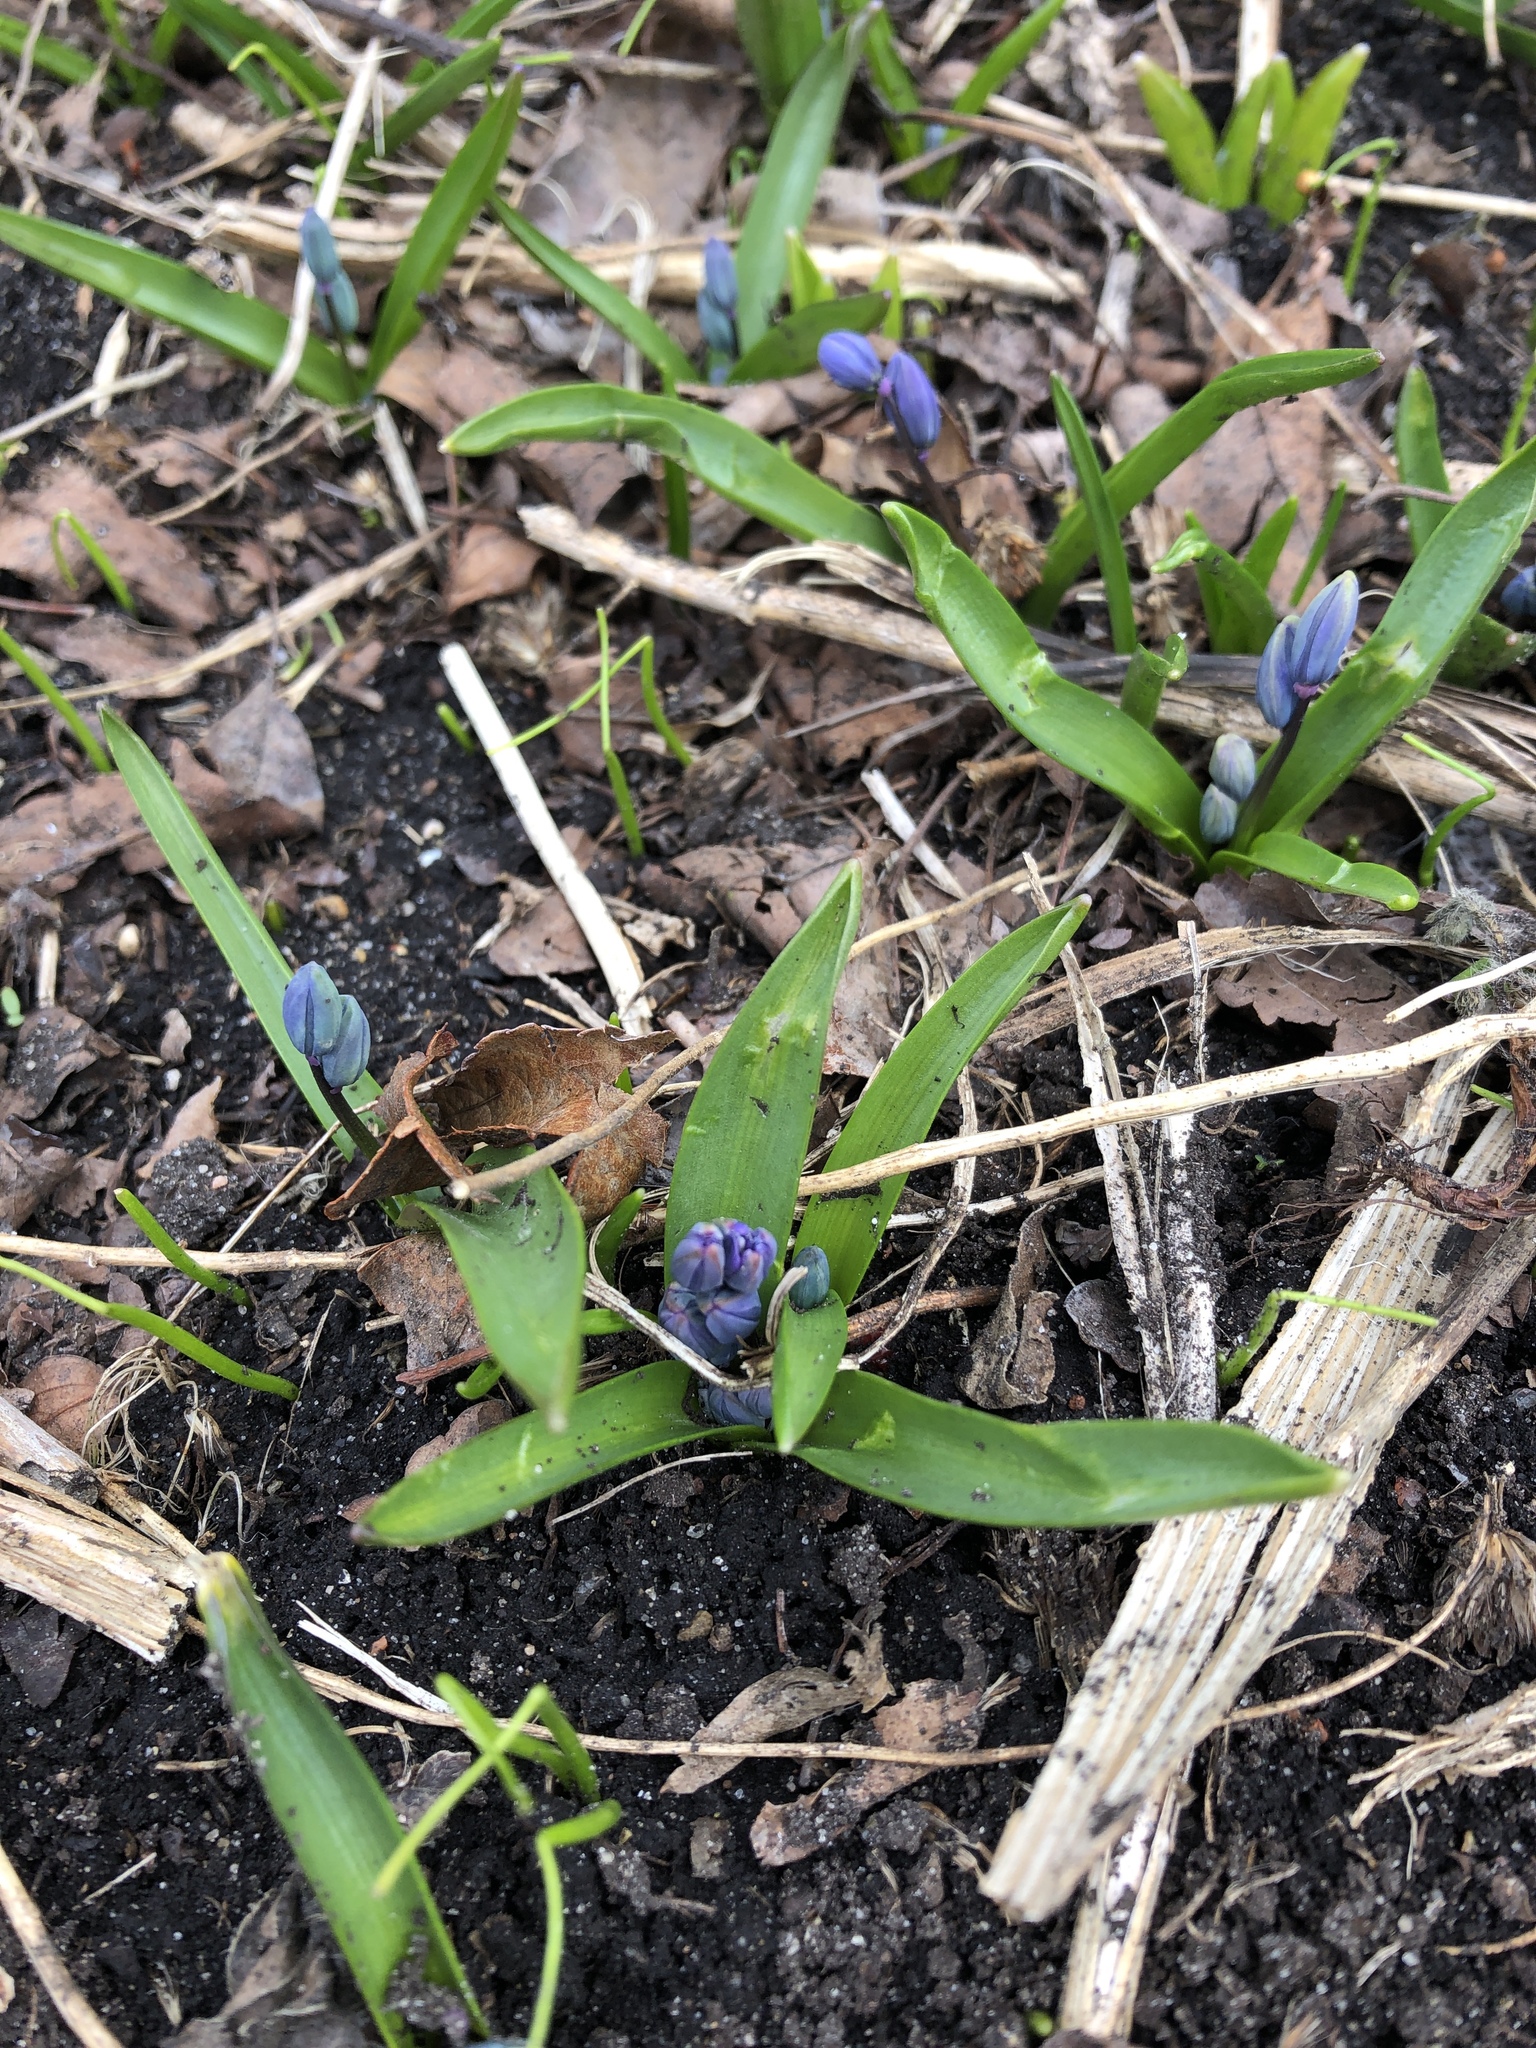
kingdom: Plantae
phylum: Tracheophyta
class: Liliopsida
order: Asparagales
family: Asparagaceae
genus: Scilla
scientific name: Scilla siberica
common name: Siberian squill
